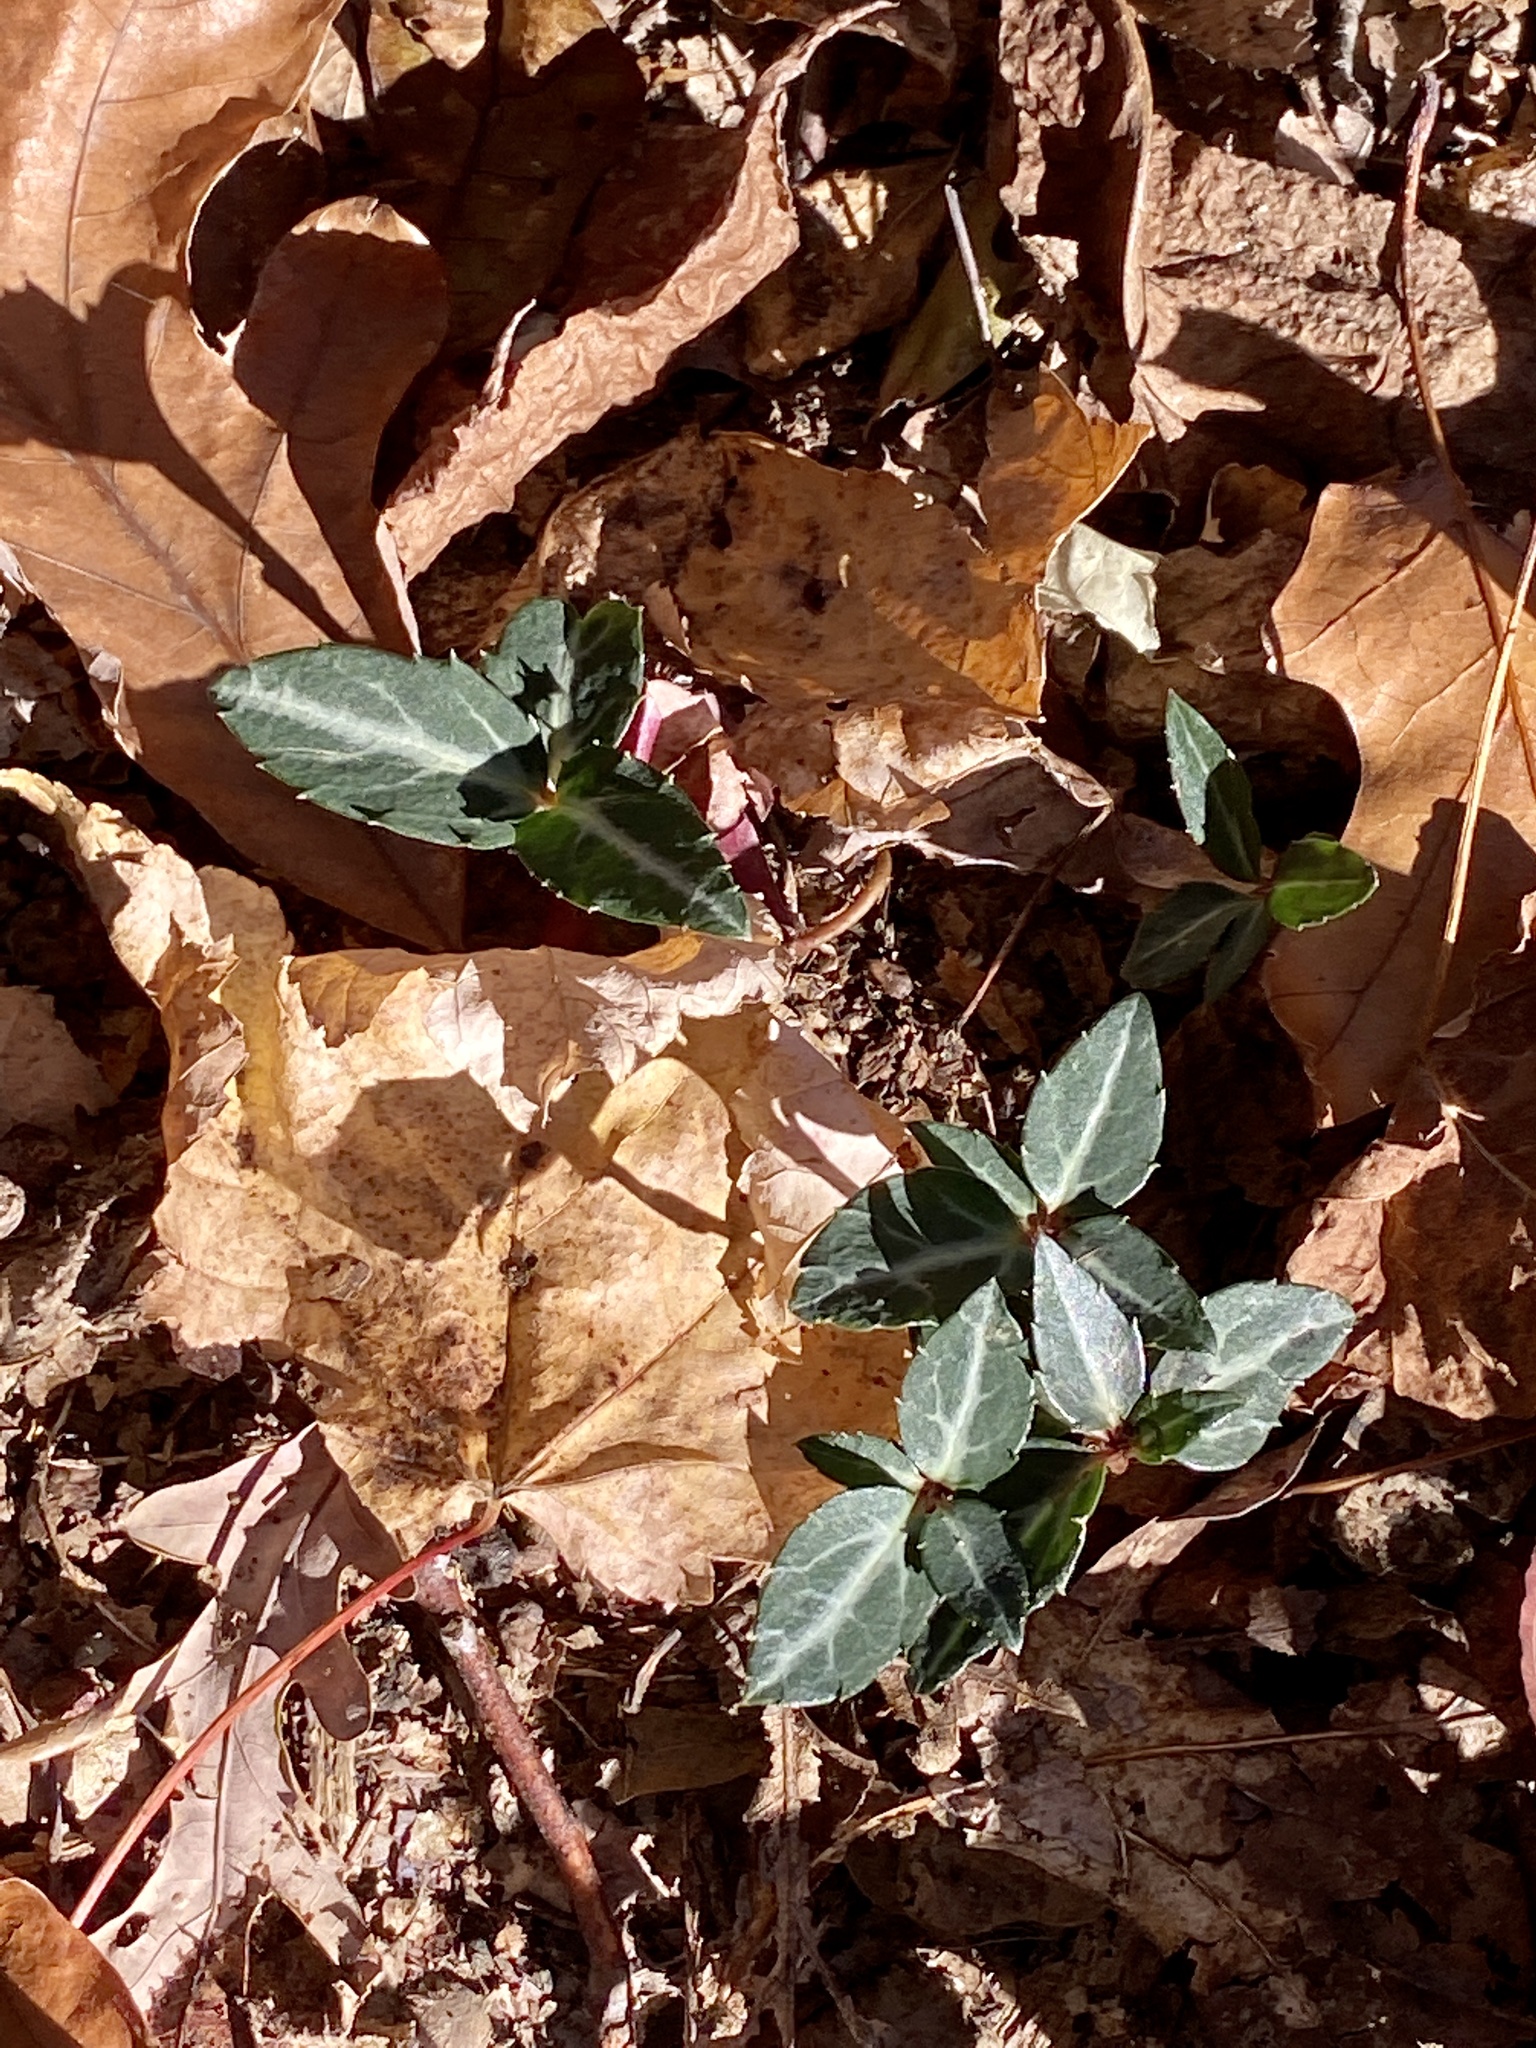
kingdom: Plantae
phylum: Tracheophyta
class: Magnoliopsida
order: Ericales
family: Ericaceae
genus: Chimaphila
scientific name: Chimaphila maculata
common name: Spotted pipsissewa
